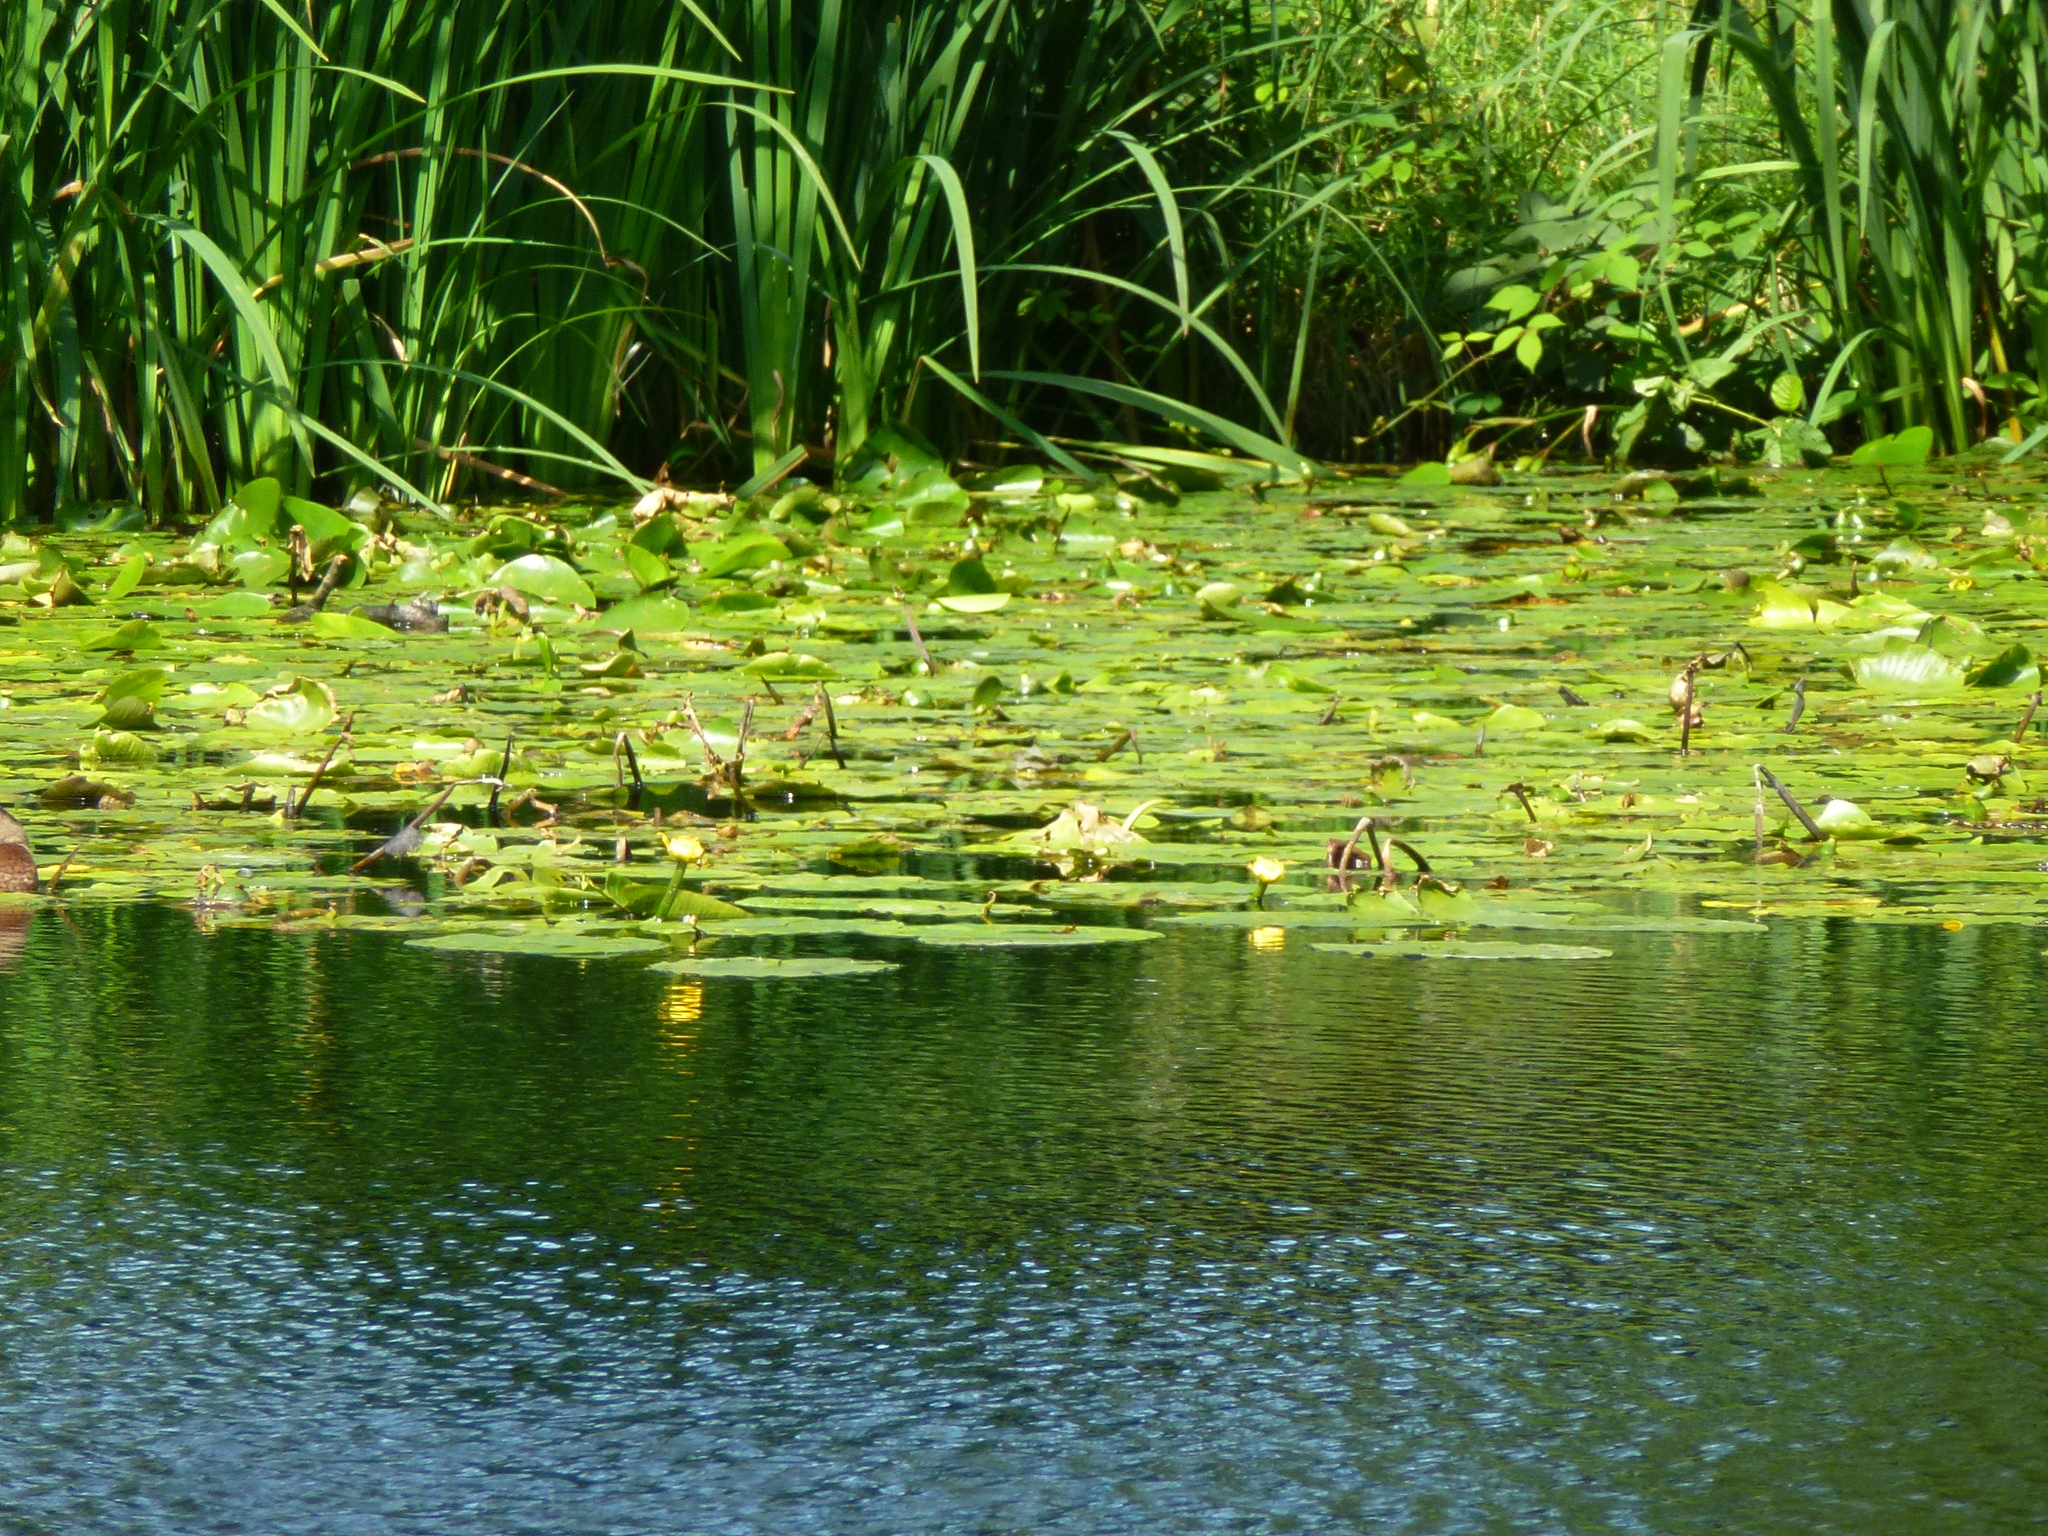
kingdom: Plantae
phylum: Tracheophyta
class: Magnoliopsida
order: Nymphaeales
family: Nymphaeaceae
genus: Nuphar
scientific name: Nuphar lutea
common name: Yellow water-lily
